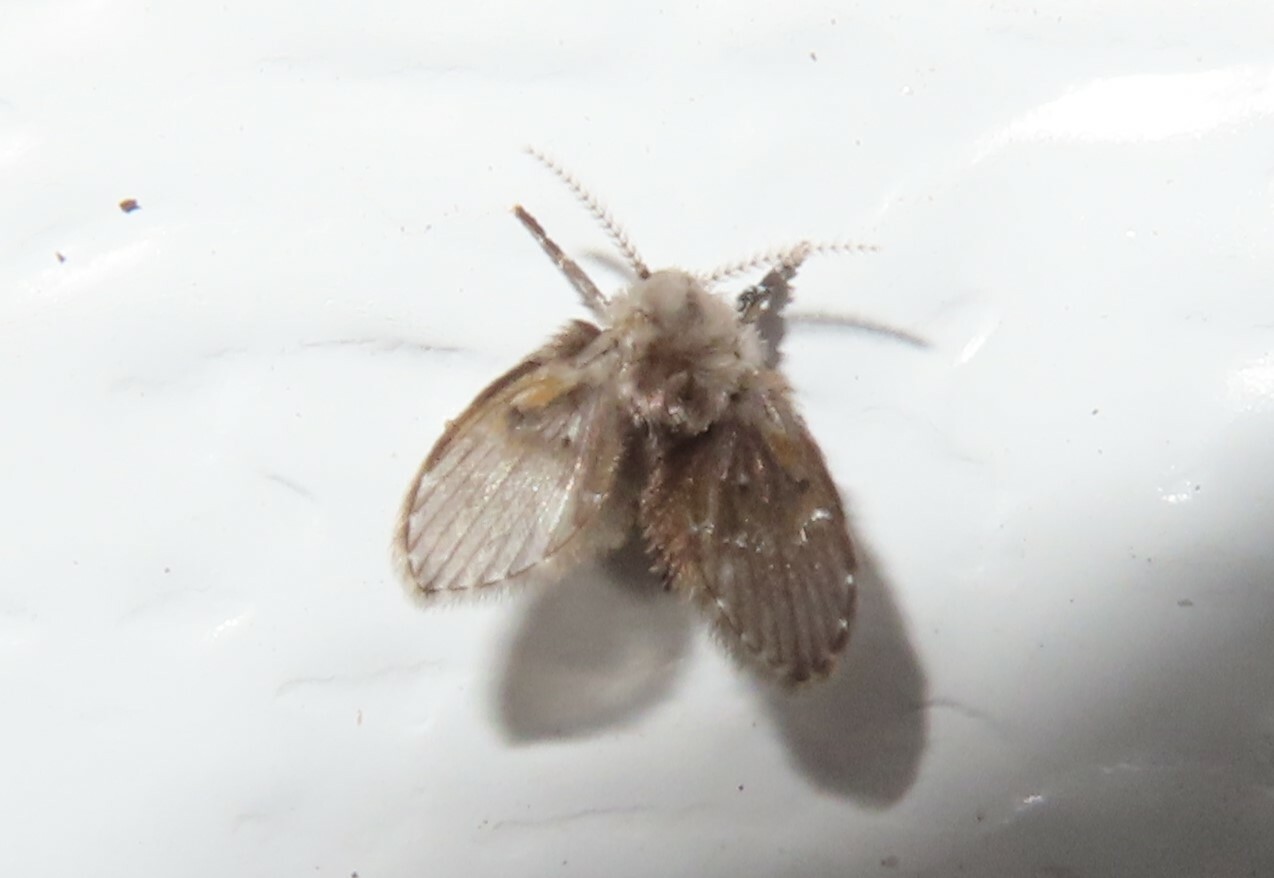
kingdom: Animalia
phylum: Arthropoda
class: Insecta
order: Diptera
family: Psychodidae
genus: Clogmia
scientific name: Clogmia albipunctatus
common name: White-spotted moth fly
